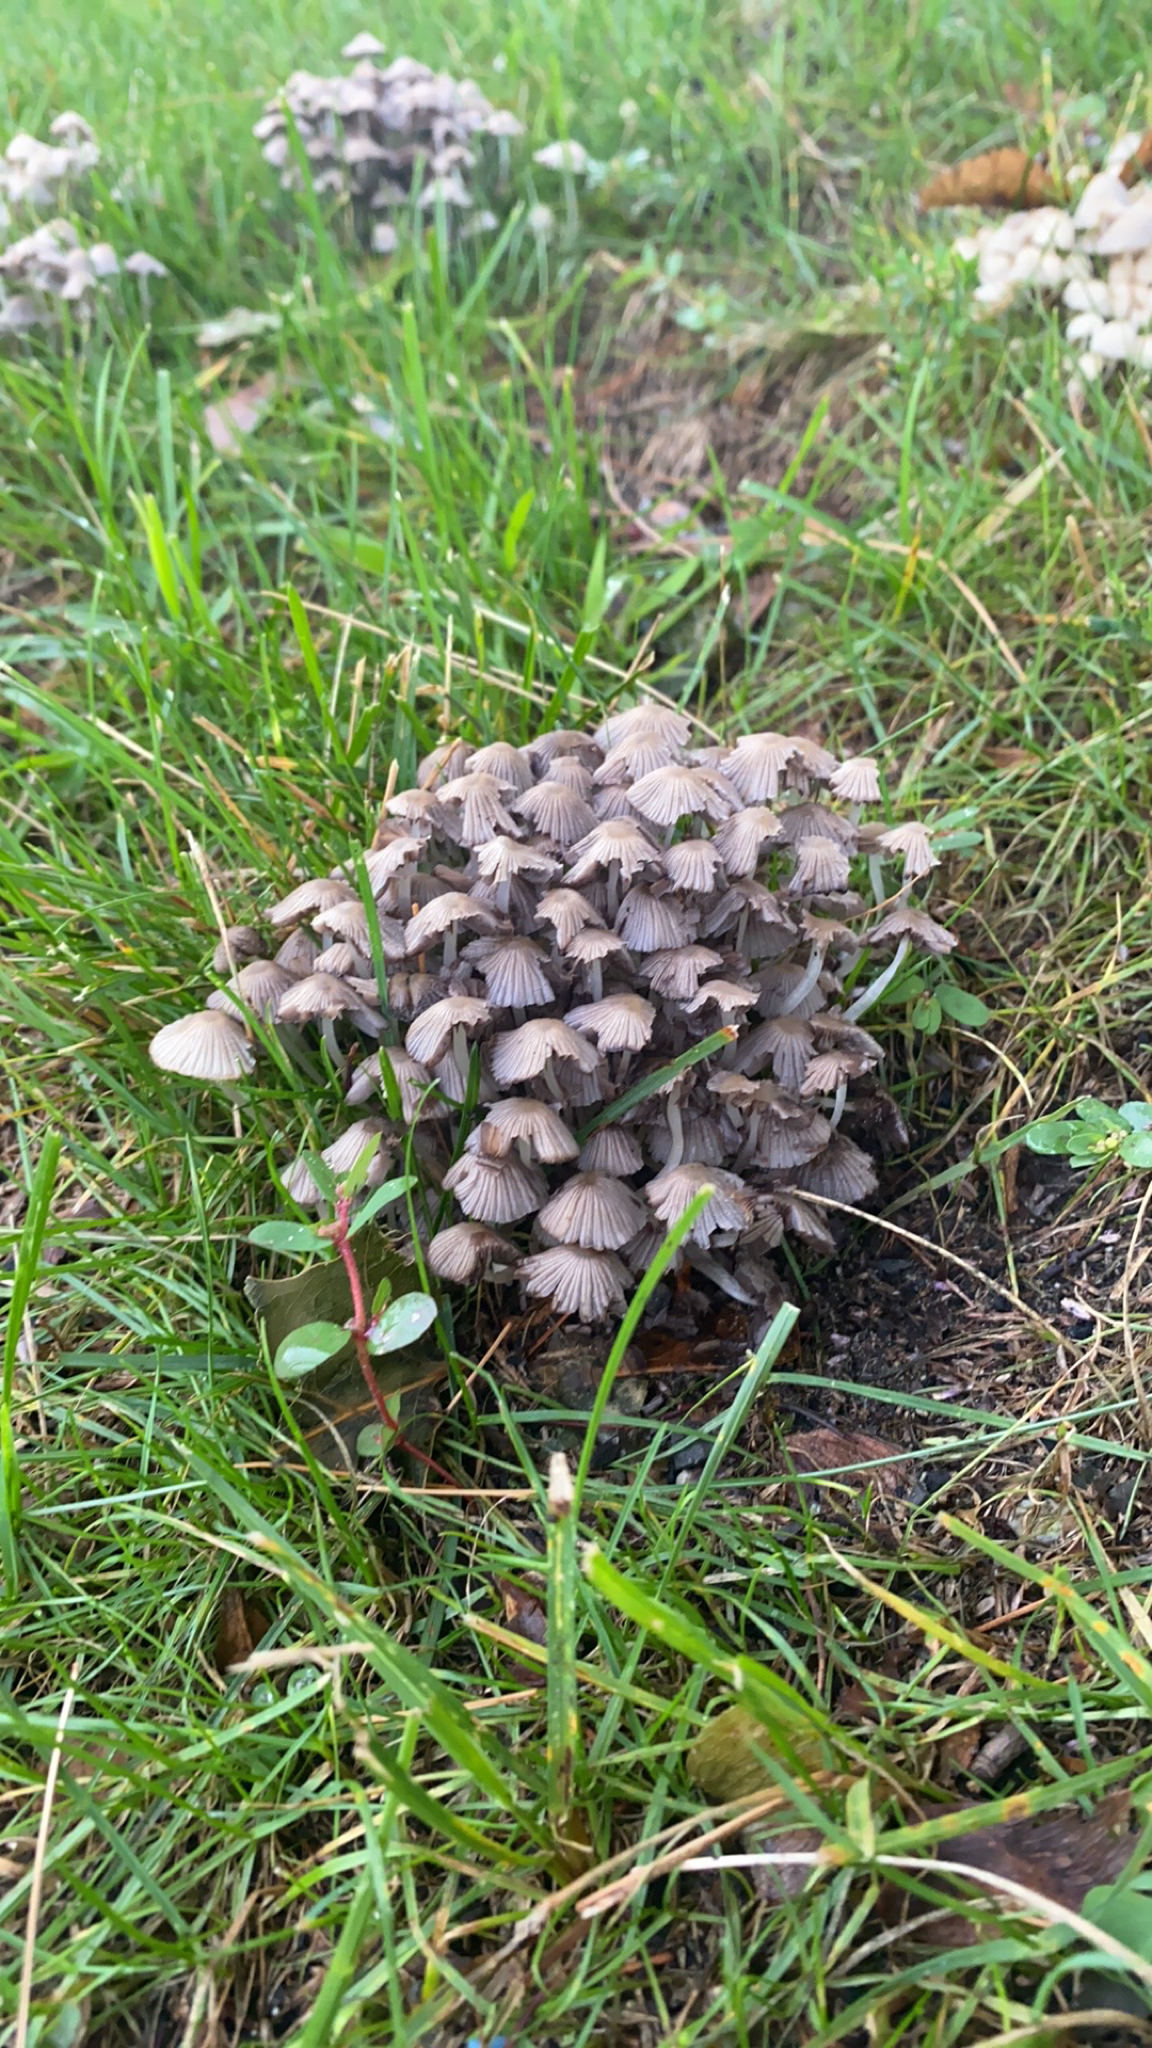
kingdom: Fungi
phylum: Basidiomycota
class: Agaricomycetes
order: Agaricales
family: Psathyrellaceae
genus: Coprinellus
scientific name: Coprinellus disseminatus
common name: Fairies' bonnets
